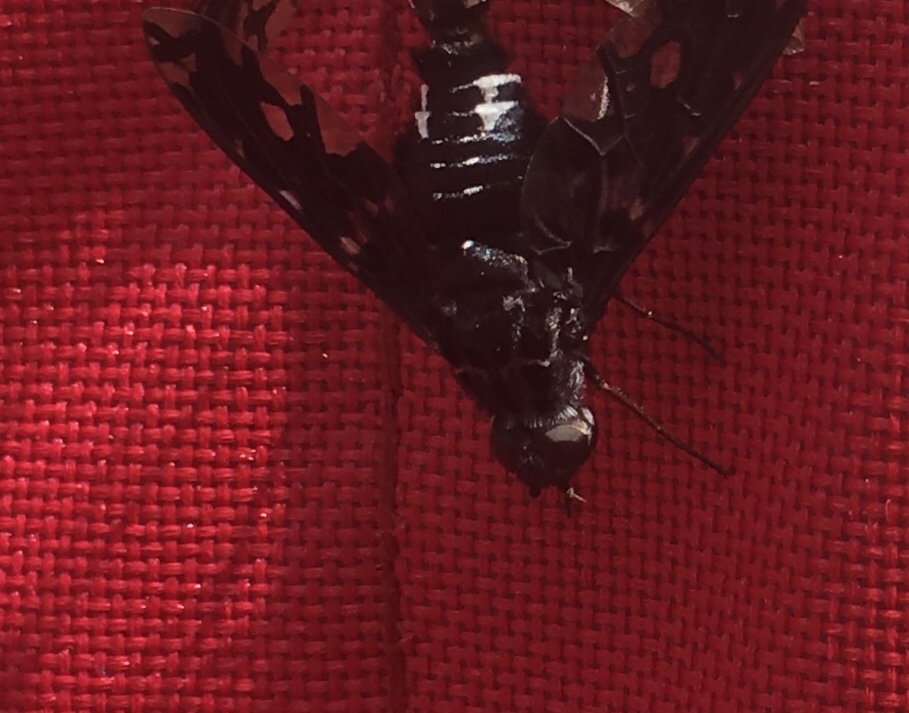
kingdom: Animalia
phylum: Arthropoda
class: Insecta
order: Diptera
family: Bombyliidae
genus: Xenox
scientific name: Xenox tigrinus
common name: Tiger bee fly
